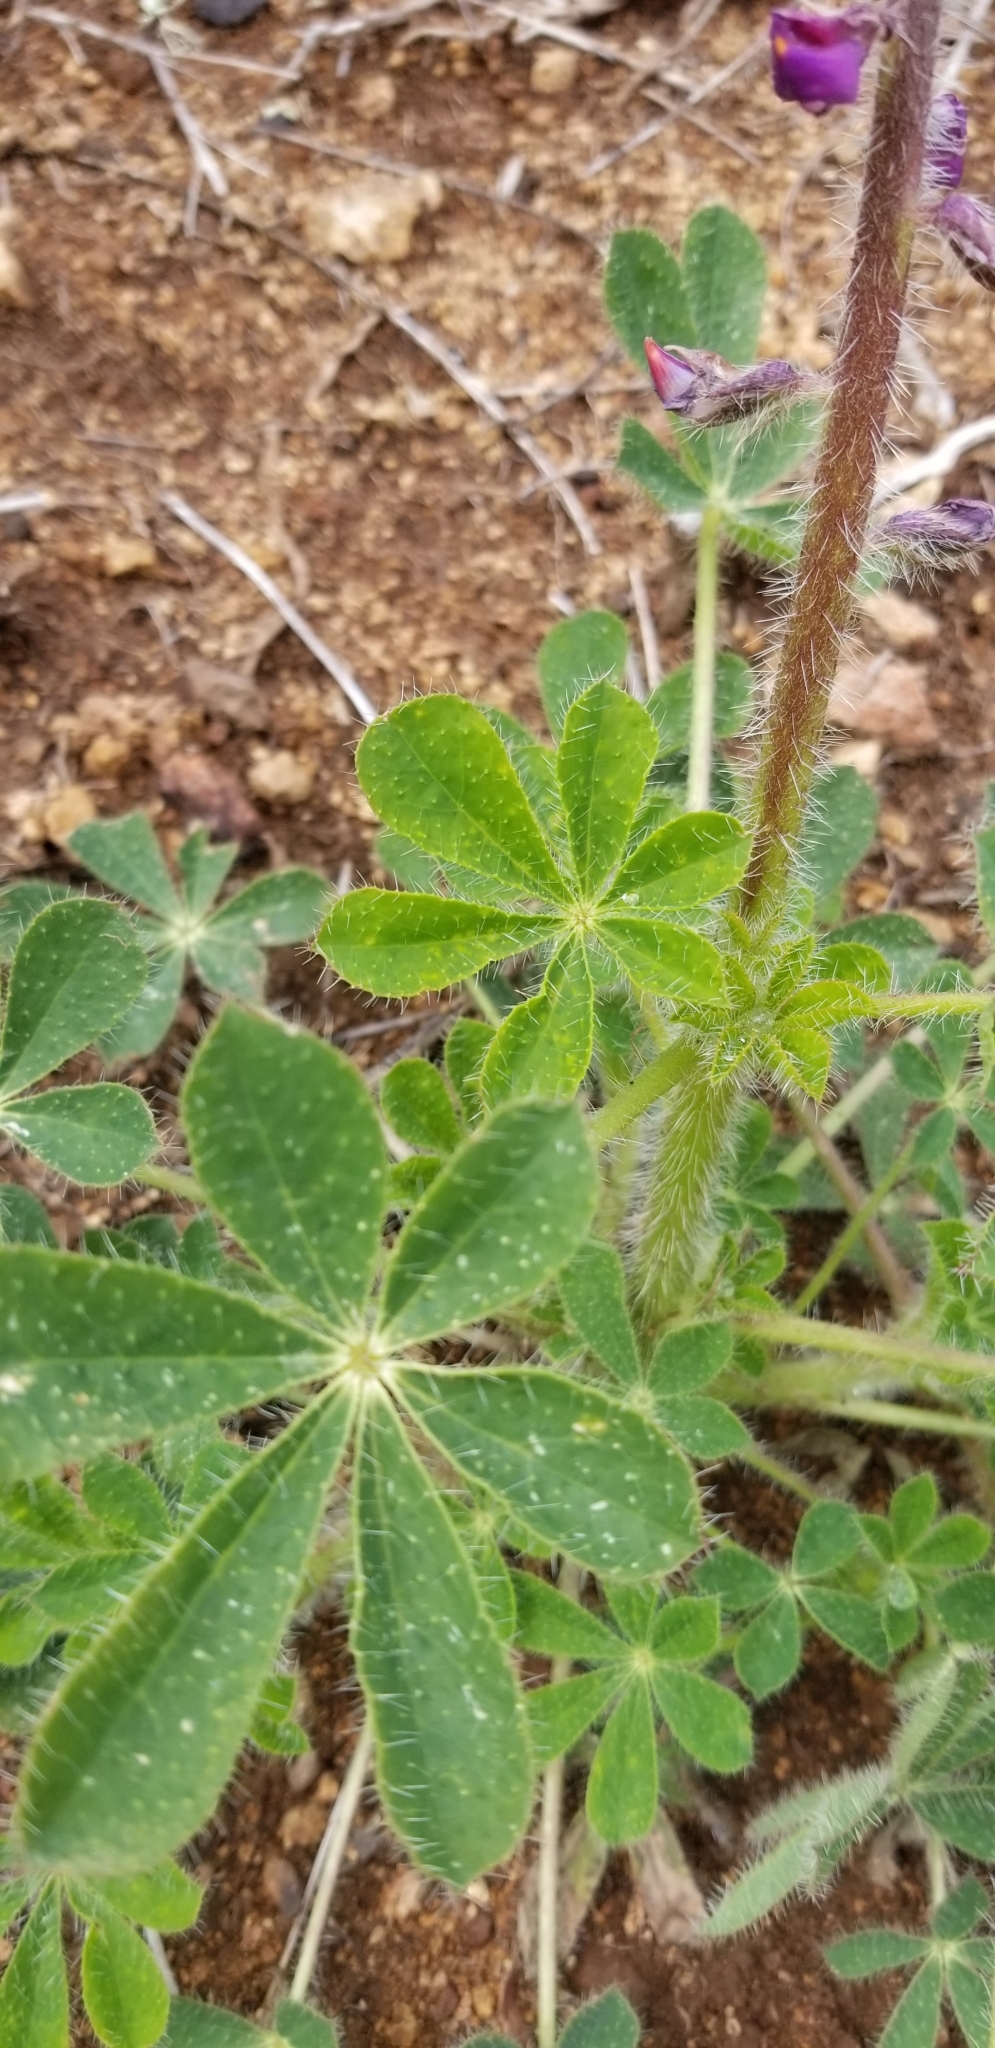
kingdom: Plantae
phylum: Tracheophyta
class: Magnoliopsida
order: Fabales
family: Fabaceae
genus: Lupinus
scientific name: Lupinus hirsutissimus
